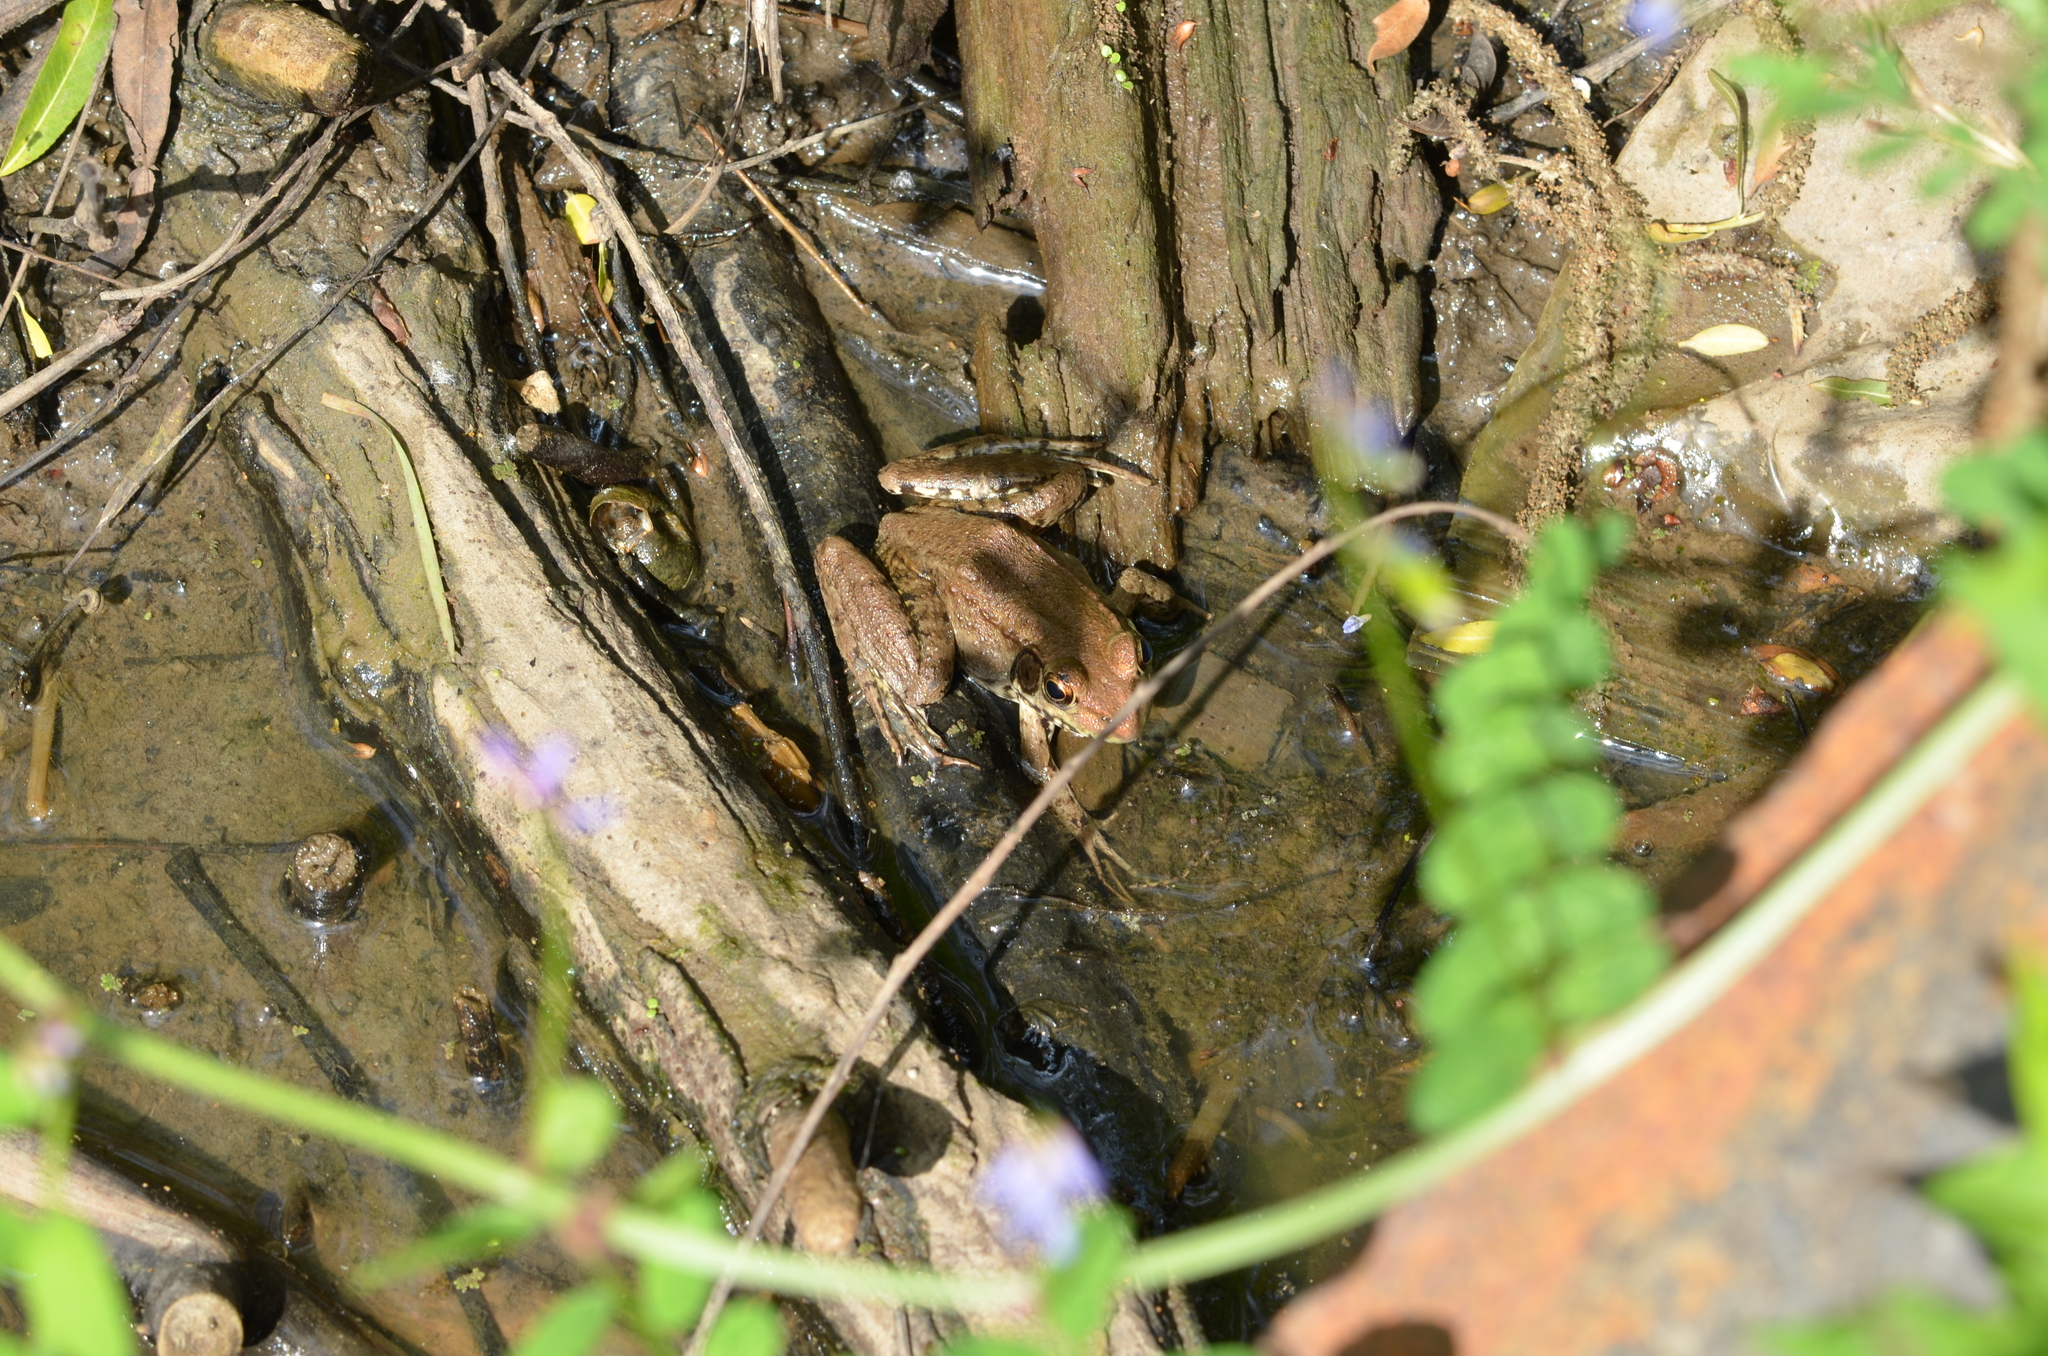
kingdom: Animalia
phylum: Chordata
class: Amphibia
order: Anura
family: Ranidae
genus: Lithobates
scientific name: Lithobates clamitans
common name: Green frog
